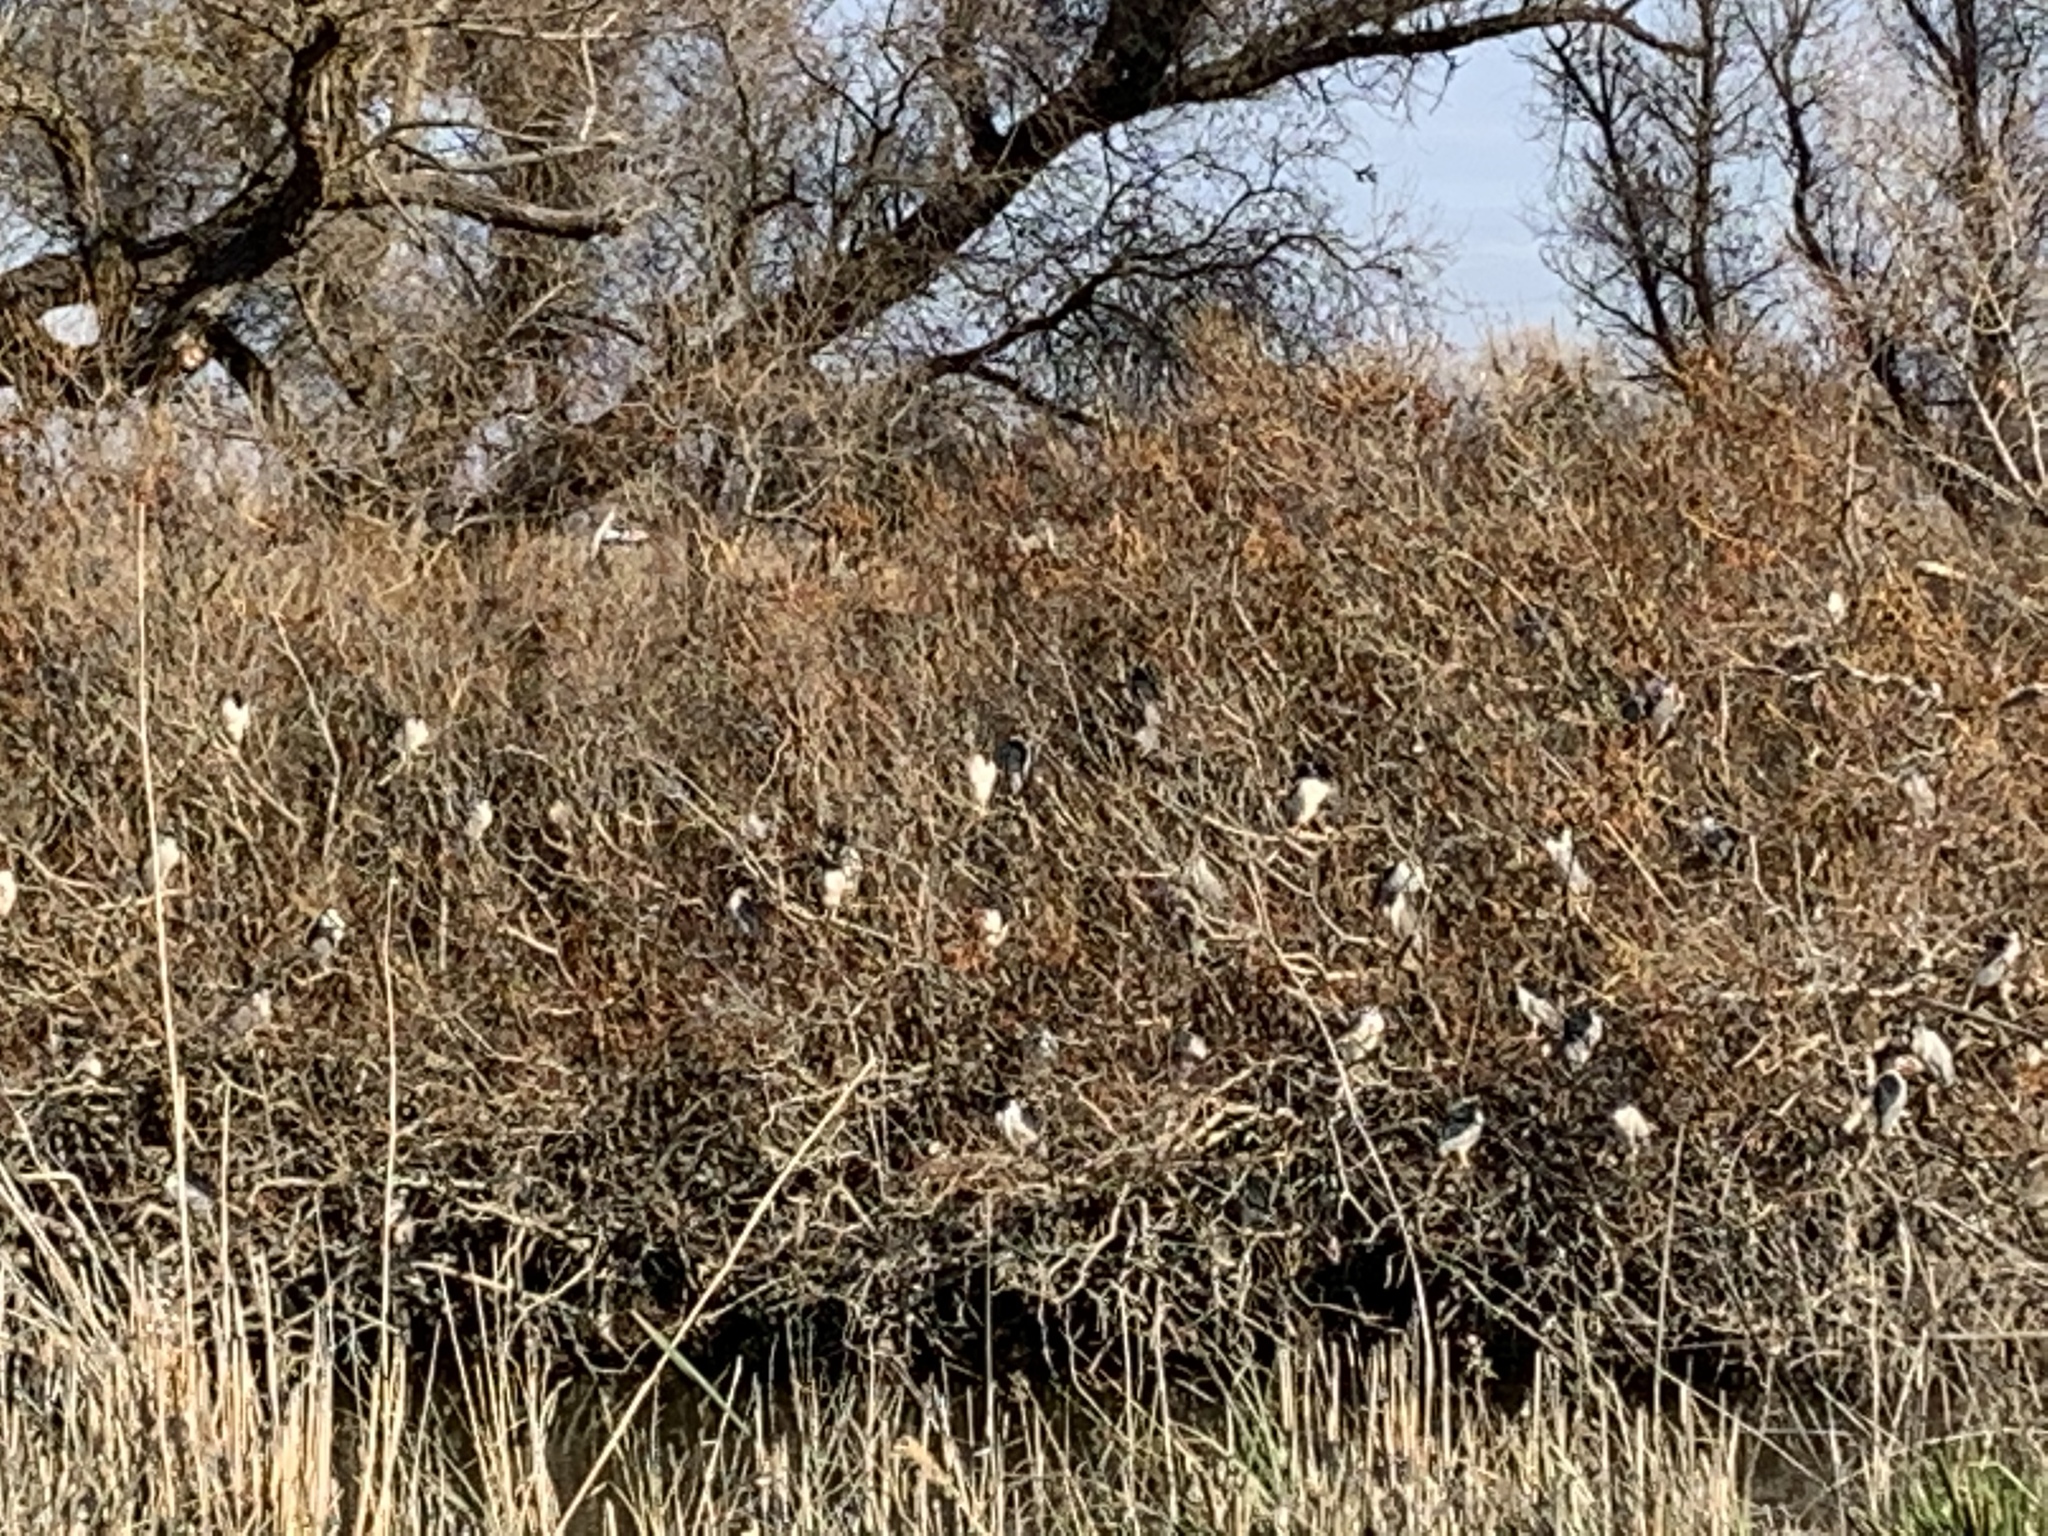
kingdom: Animalia
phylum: Chordata
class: Aves
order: Pelecaniformes
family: Ardeidae
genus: Nycticorax
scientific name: Nycticorax nycticorax
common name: Black-crowned night heron
